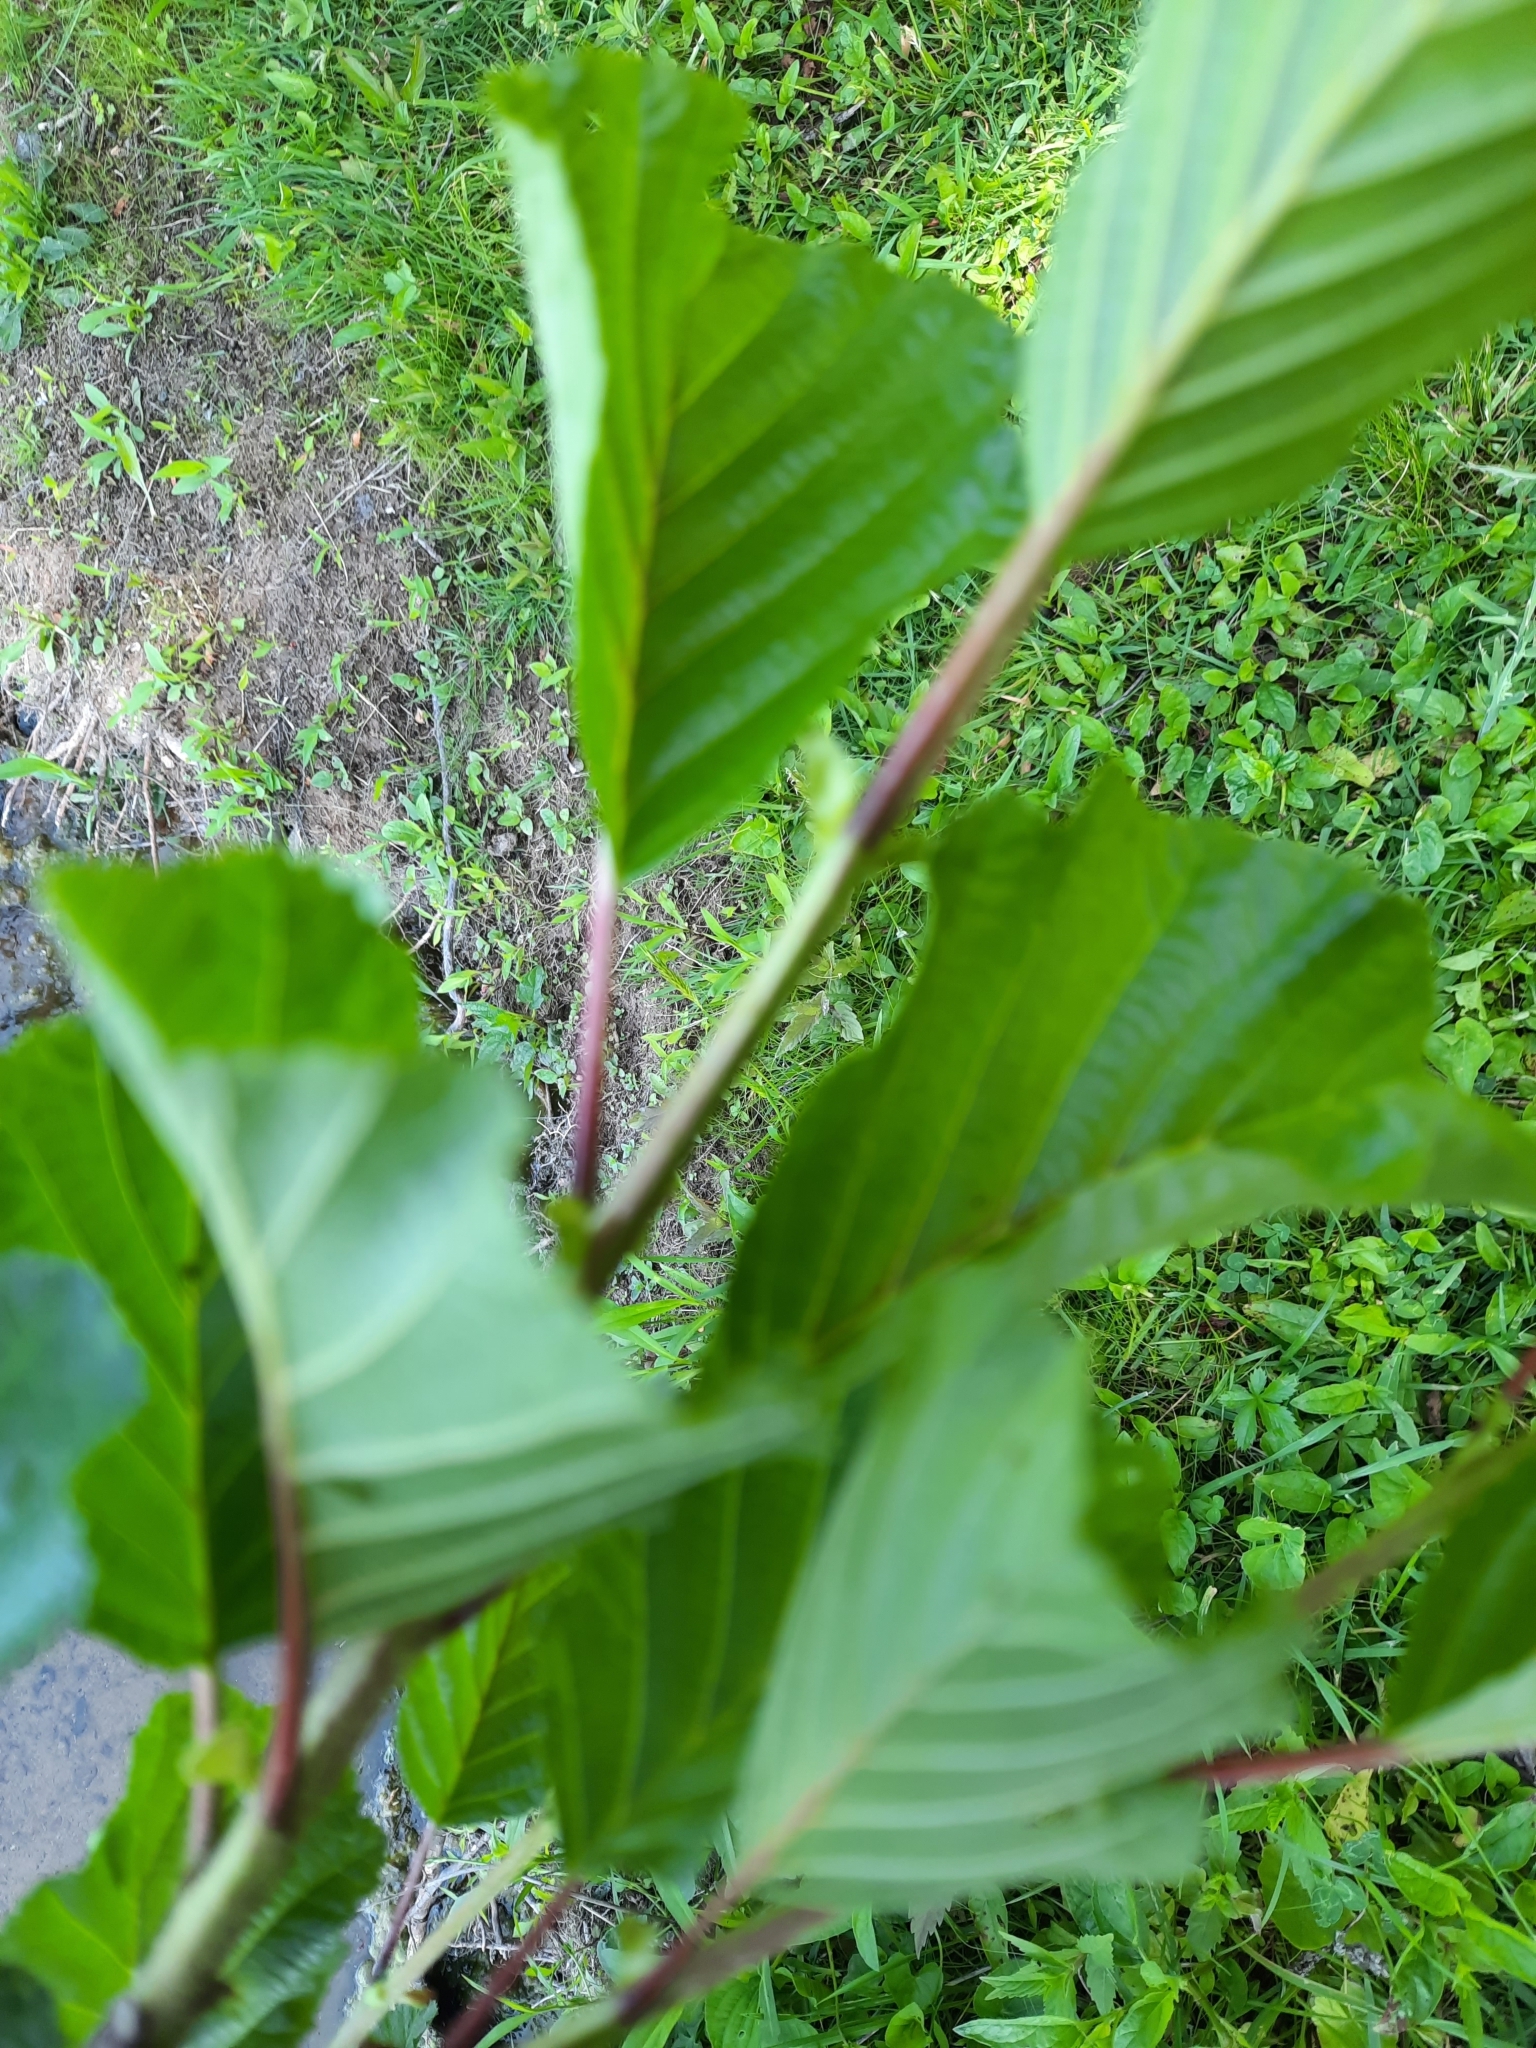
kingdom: Plantae
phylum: Tracheophyta
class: Magnoliopsida
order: Fagales
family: Betulaceae
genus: Alnus
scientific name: Alnus glutinosa
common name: Black alder
